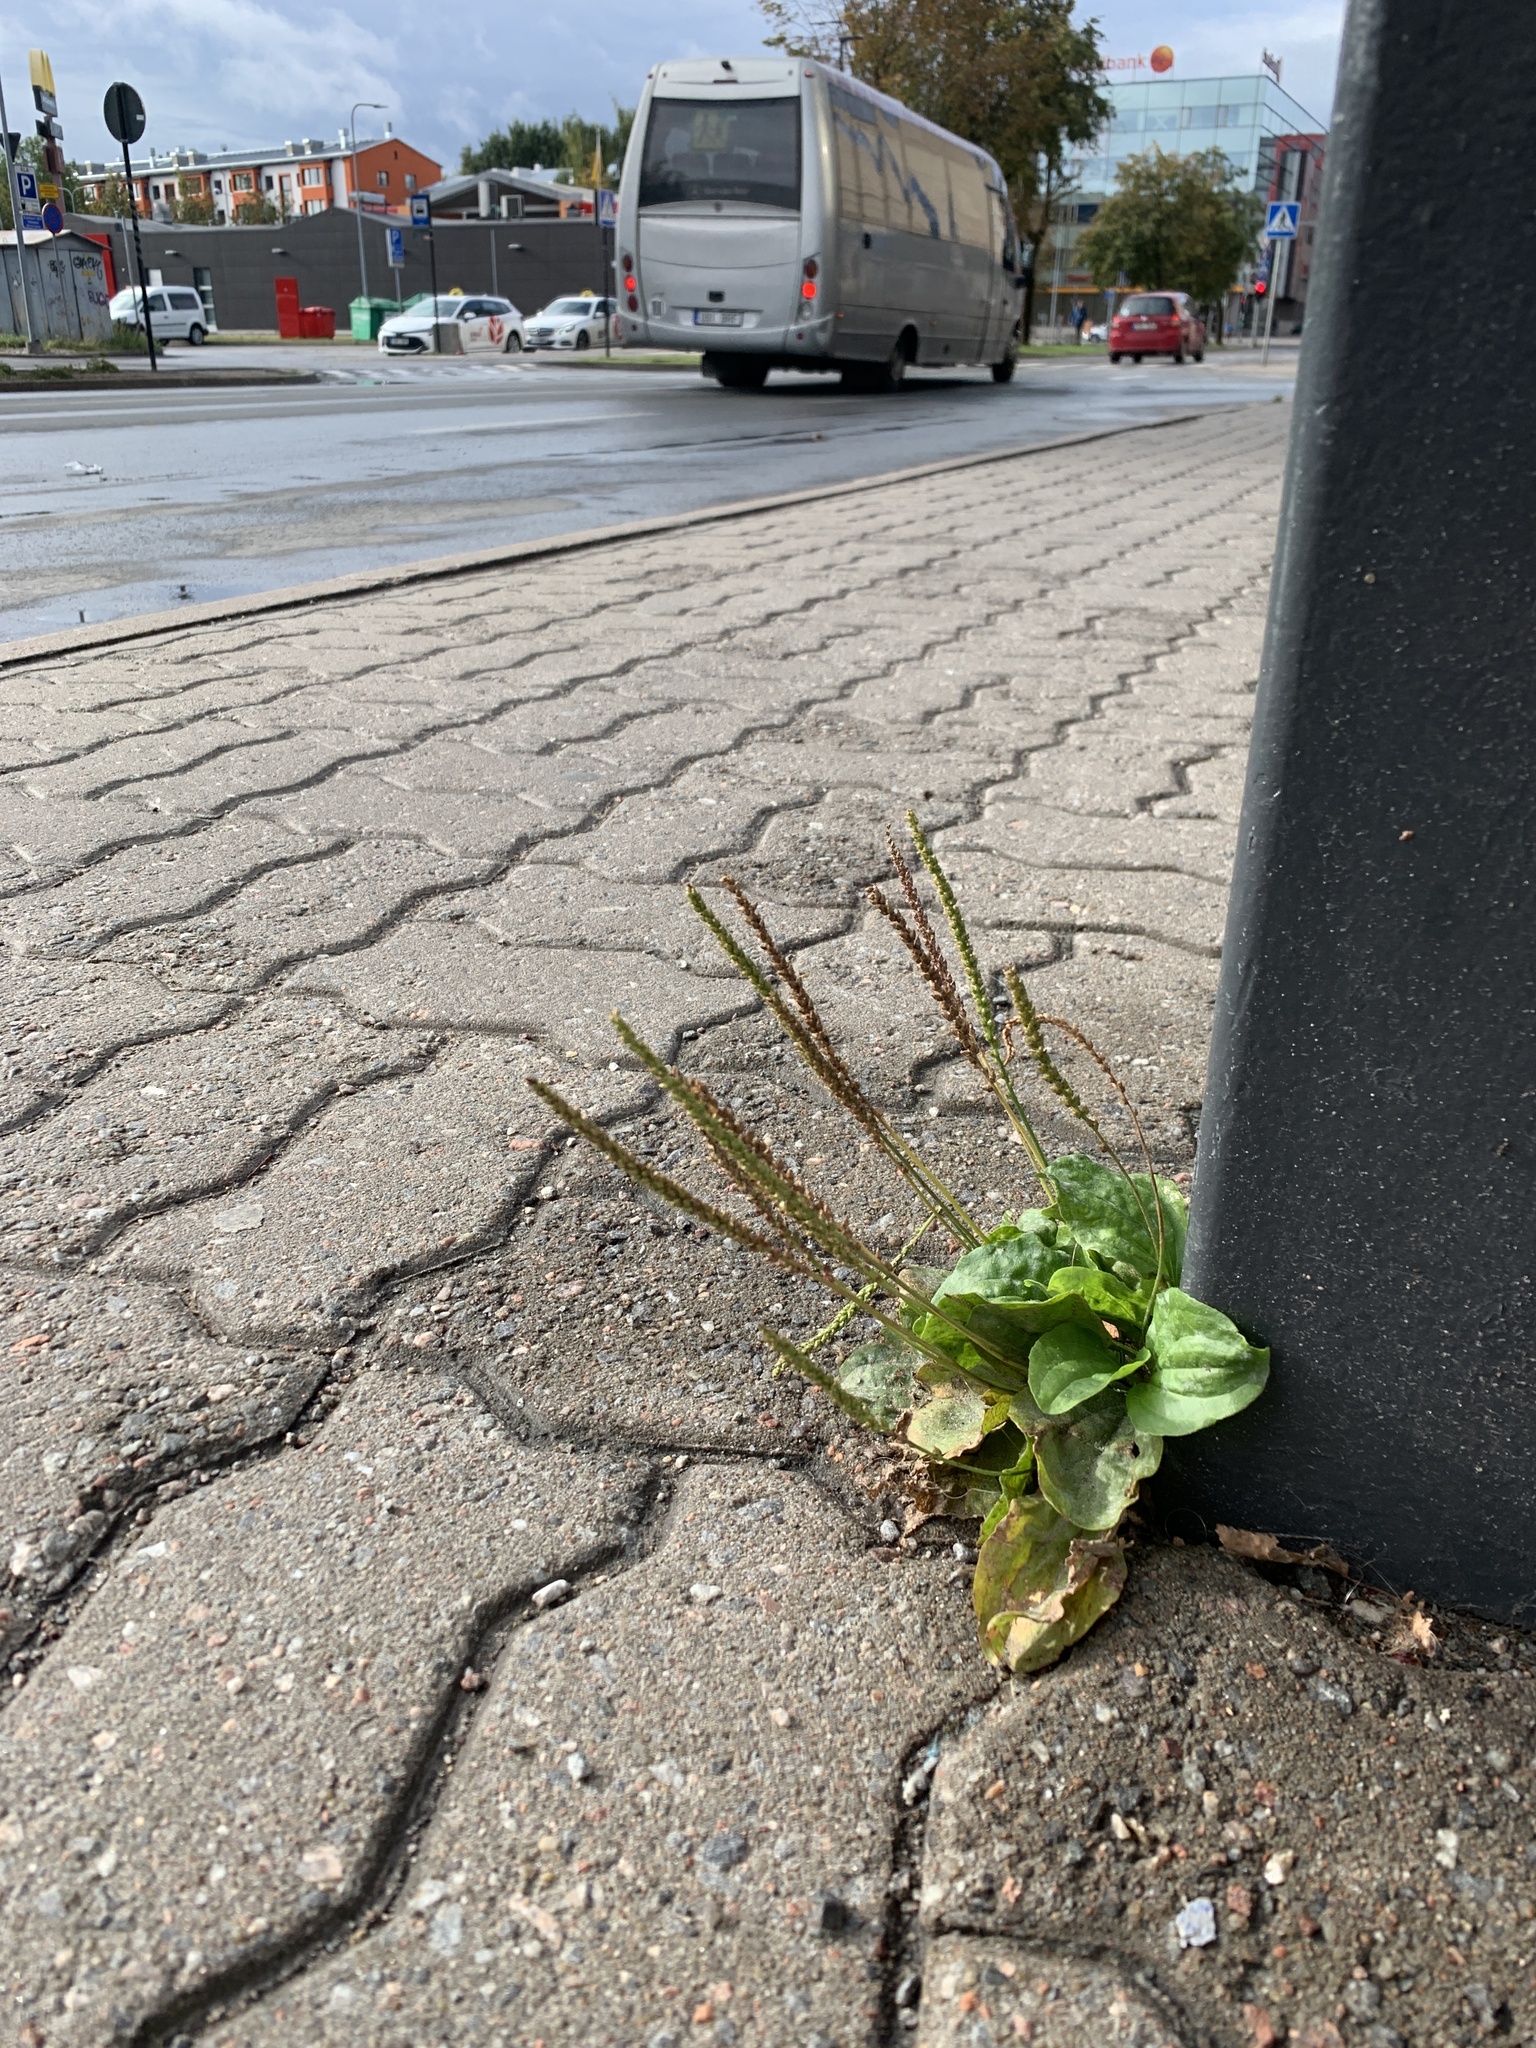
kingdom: Plantae
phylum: Tracheophyta
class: Magnoliopsida
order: Lamiales
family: Plantaginaceae
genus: Plantago
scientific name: Plantago major
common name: Common plantain
